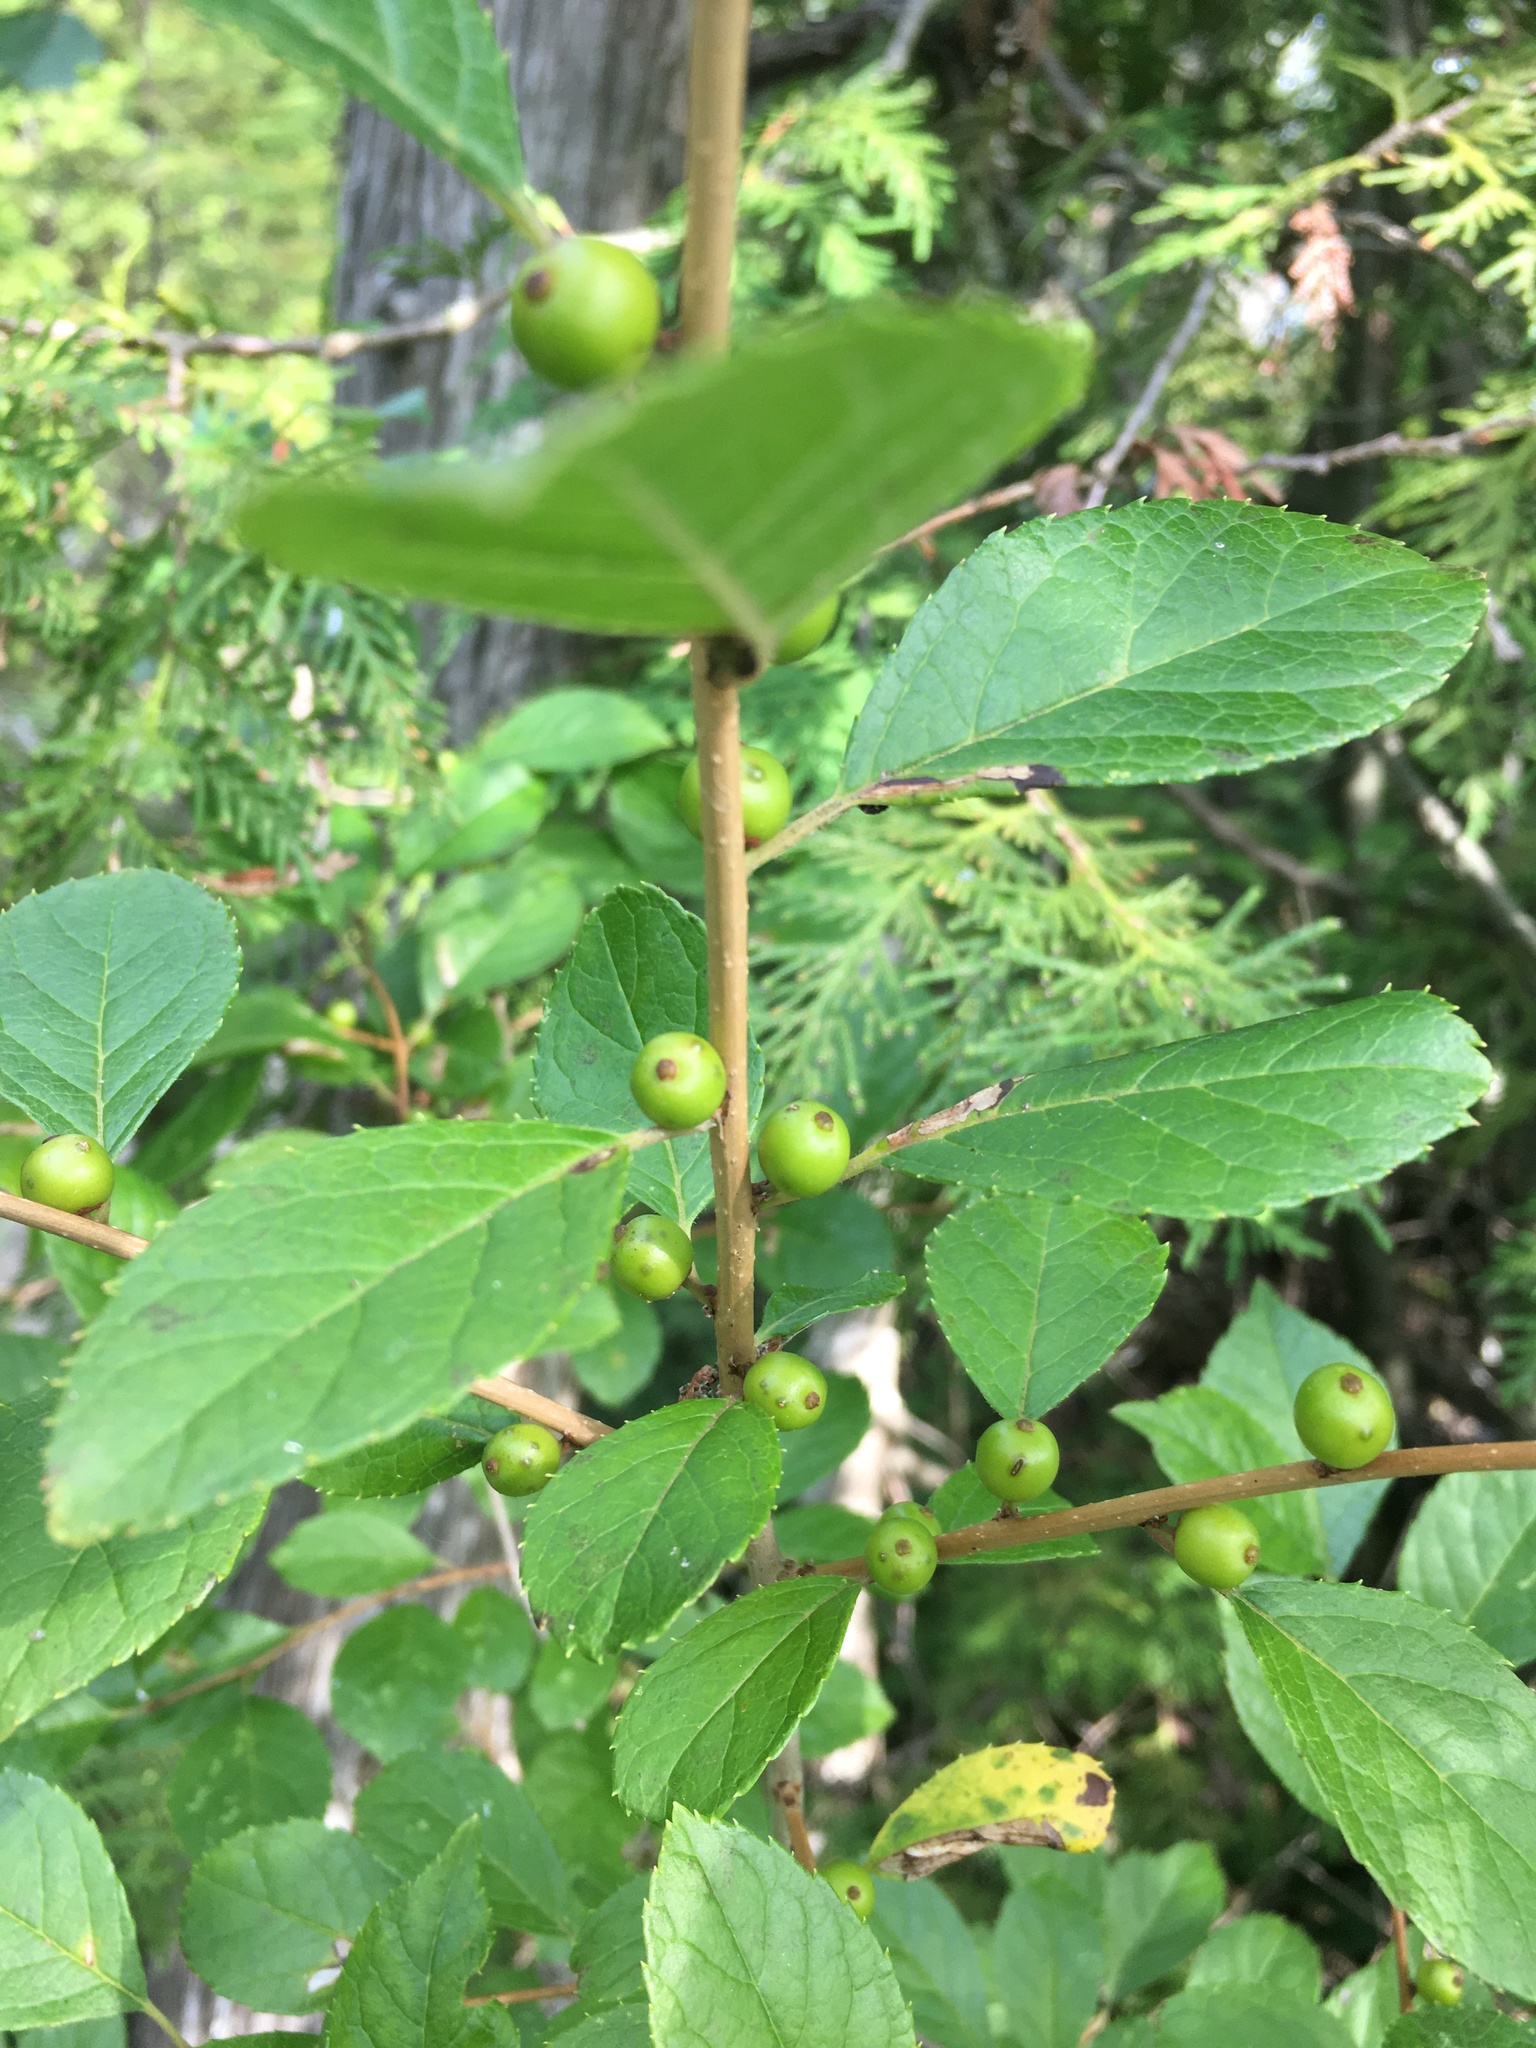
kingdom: Plantae
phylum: Tracheophyta
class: Magnoliopsida
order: Aquifoliales
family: Aquifoliaceae
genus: Ilex
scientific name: Ilex verticillata
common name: Virginia winterberry
